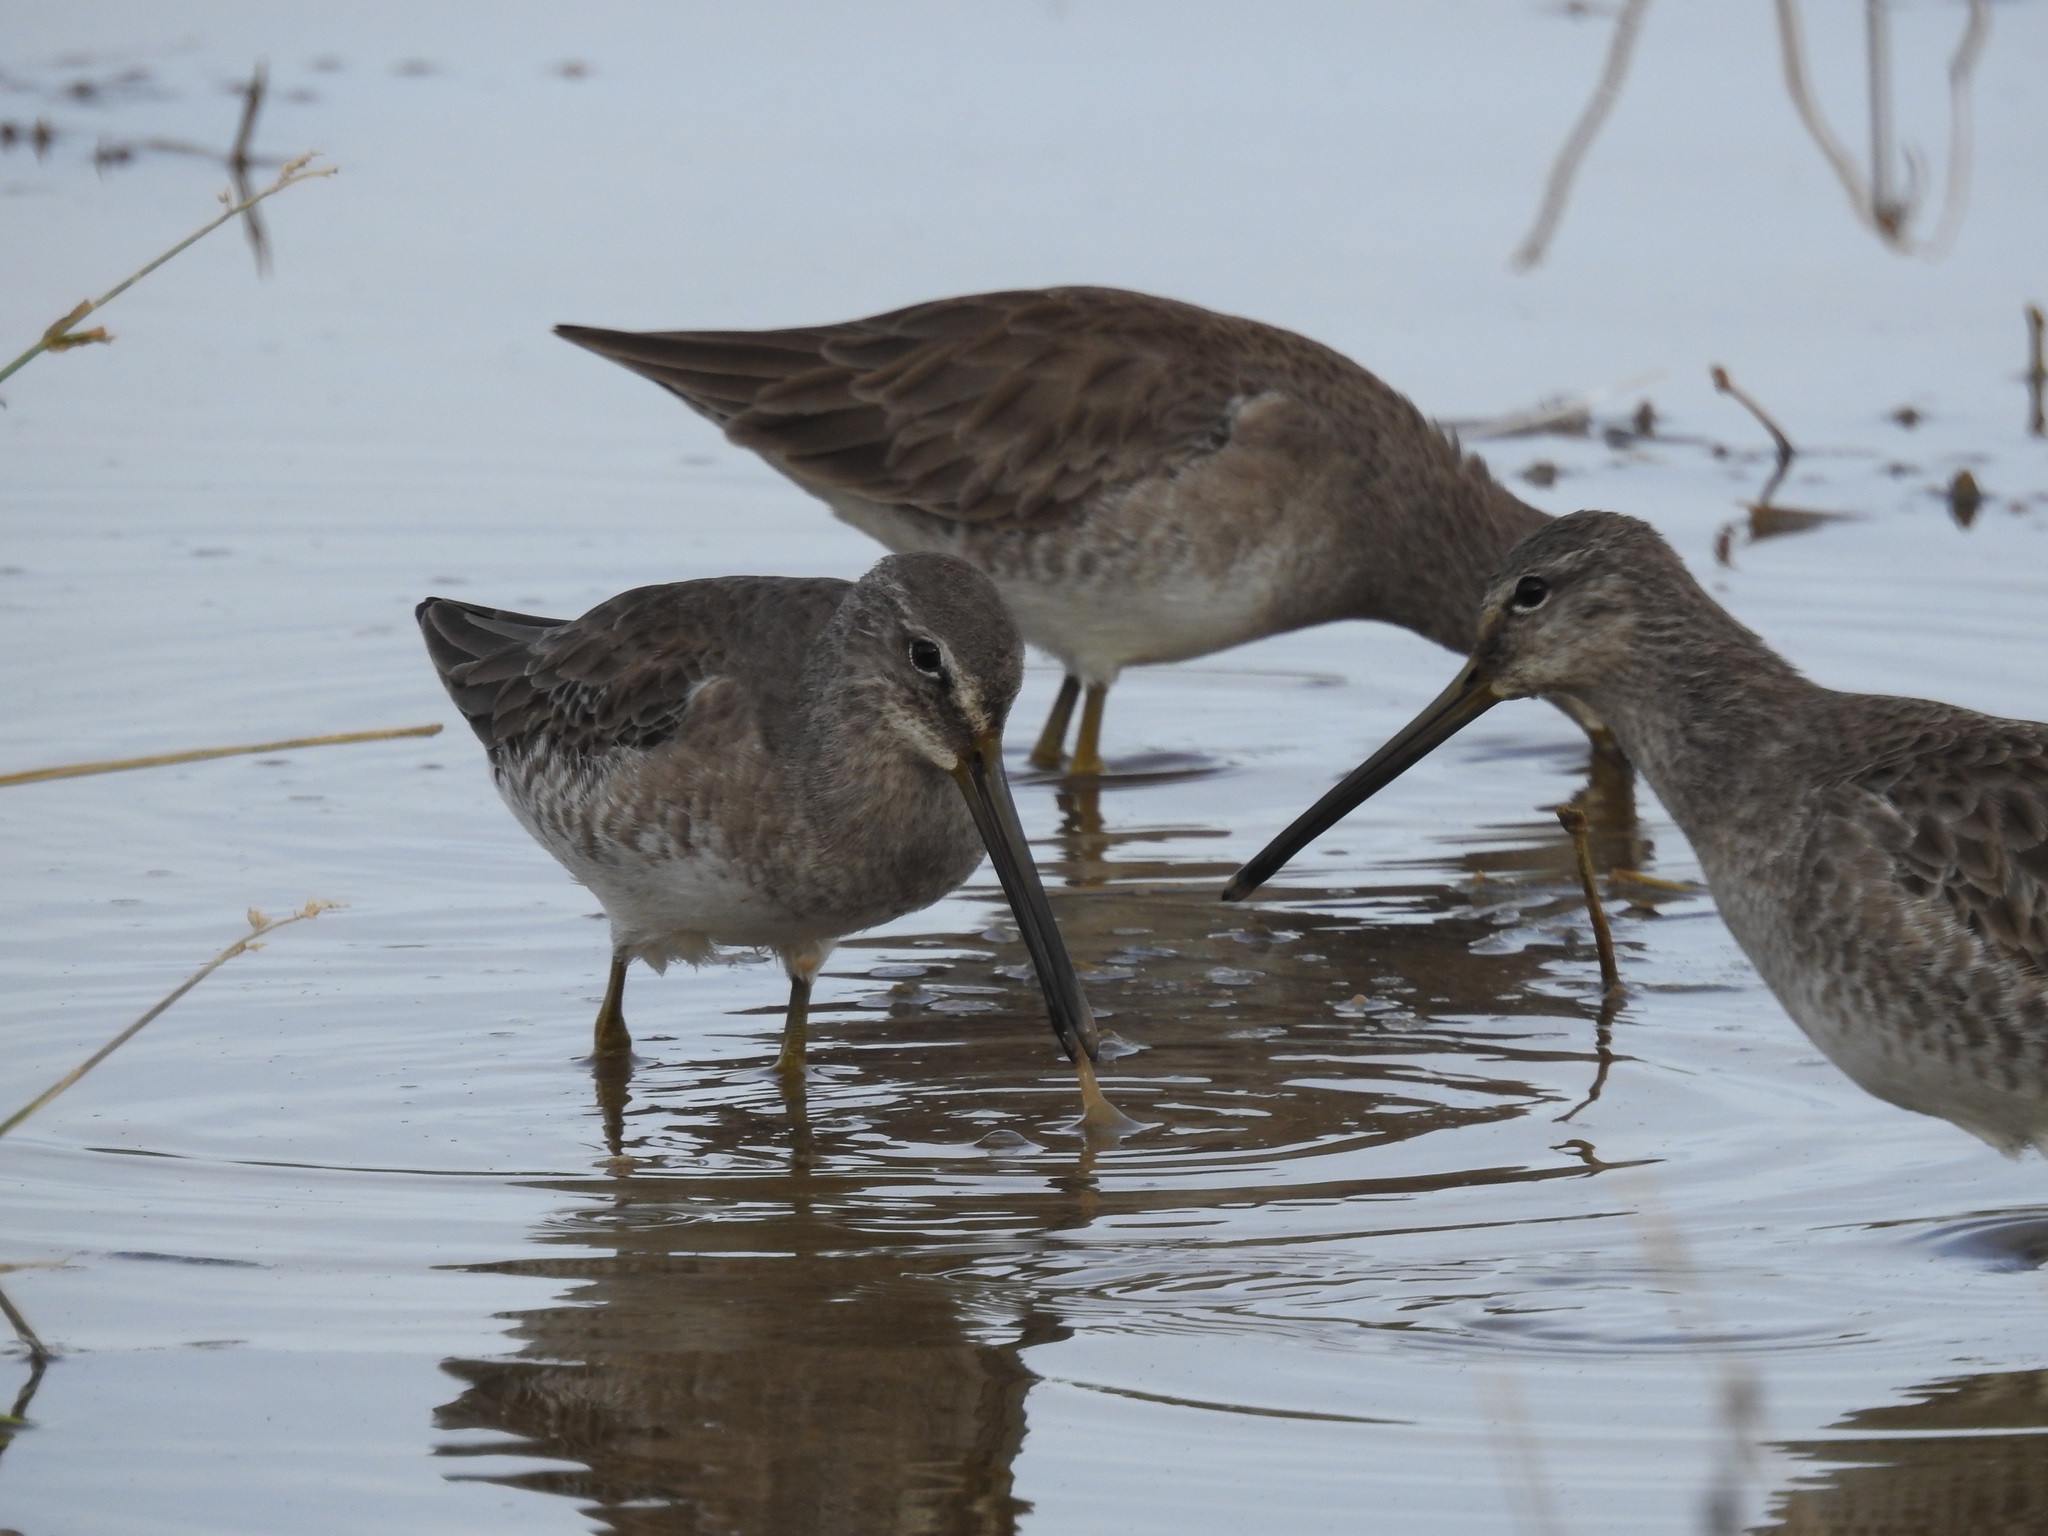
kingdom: Animalia
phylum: Chordata
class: Aves
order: Charadriiformes
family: Scolopacidae
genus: Limnodromus
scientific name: Limnodromus scolopaceus
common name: Long-billed dowitcher
